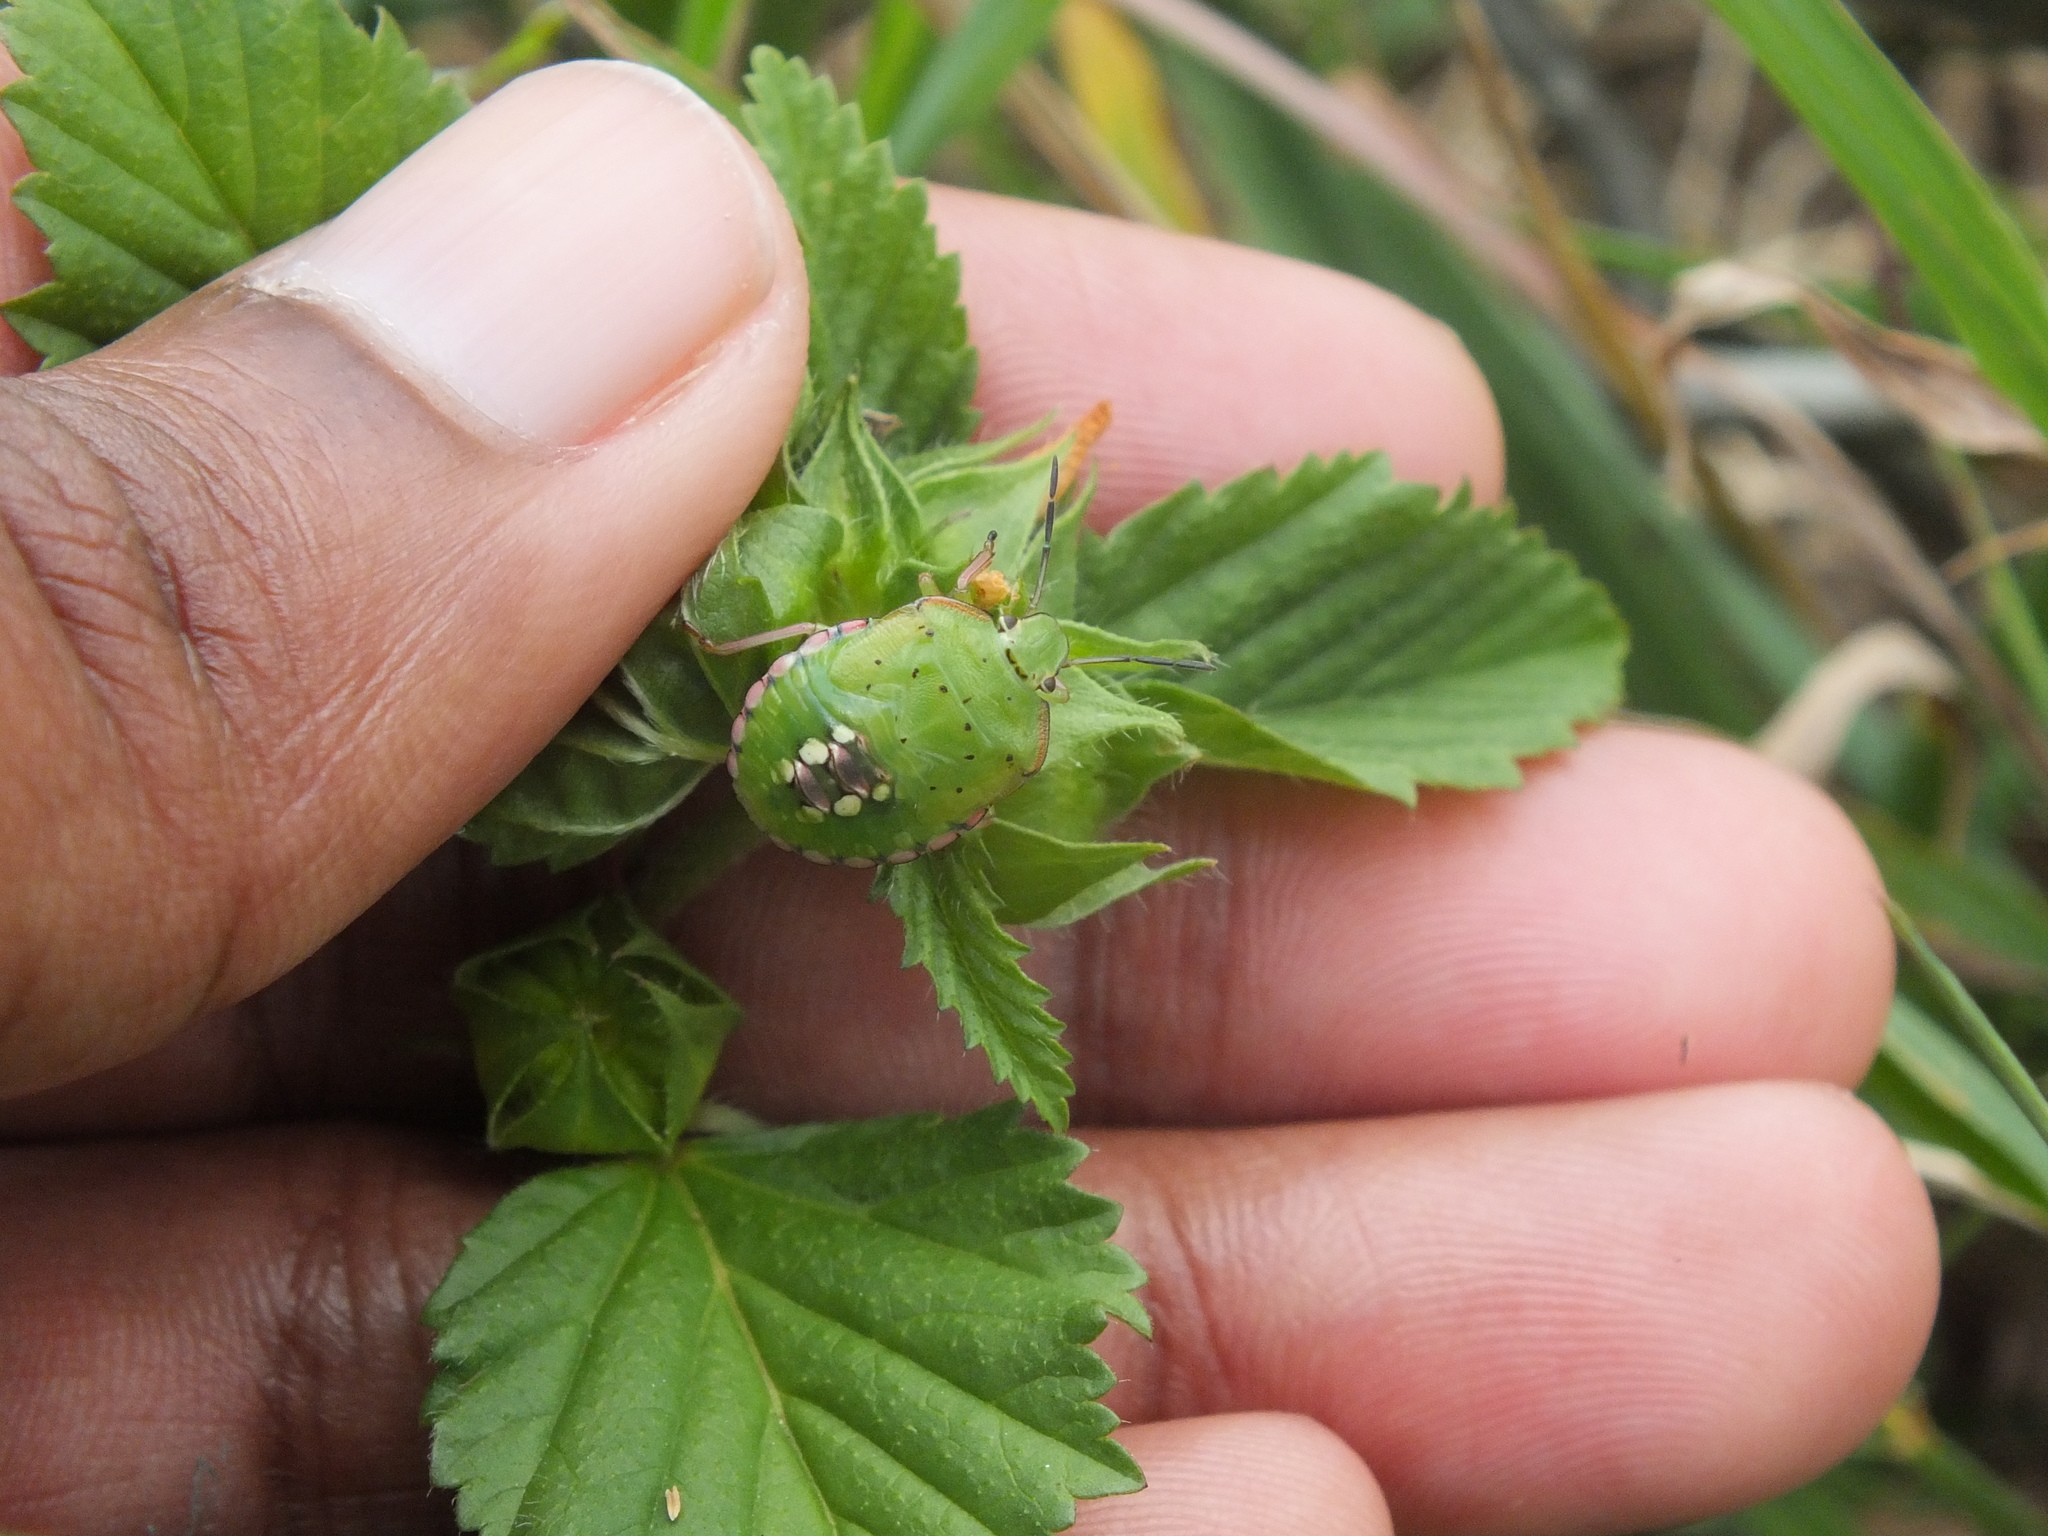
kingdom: Animalia
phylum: Arthropoda
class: Insecta
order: Hemiptera
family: Pentatomidae
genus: Nezara
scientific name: Nezara viridula
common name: Southern green stink bug
